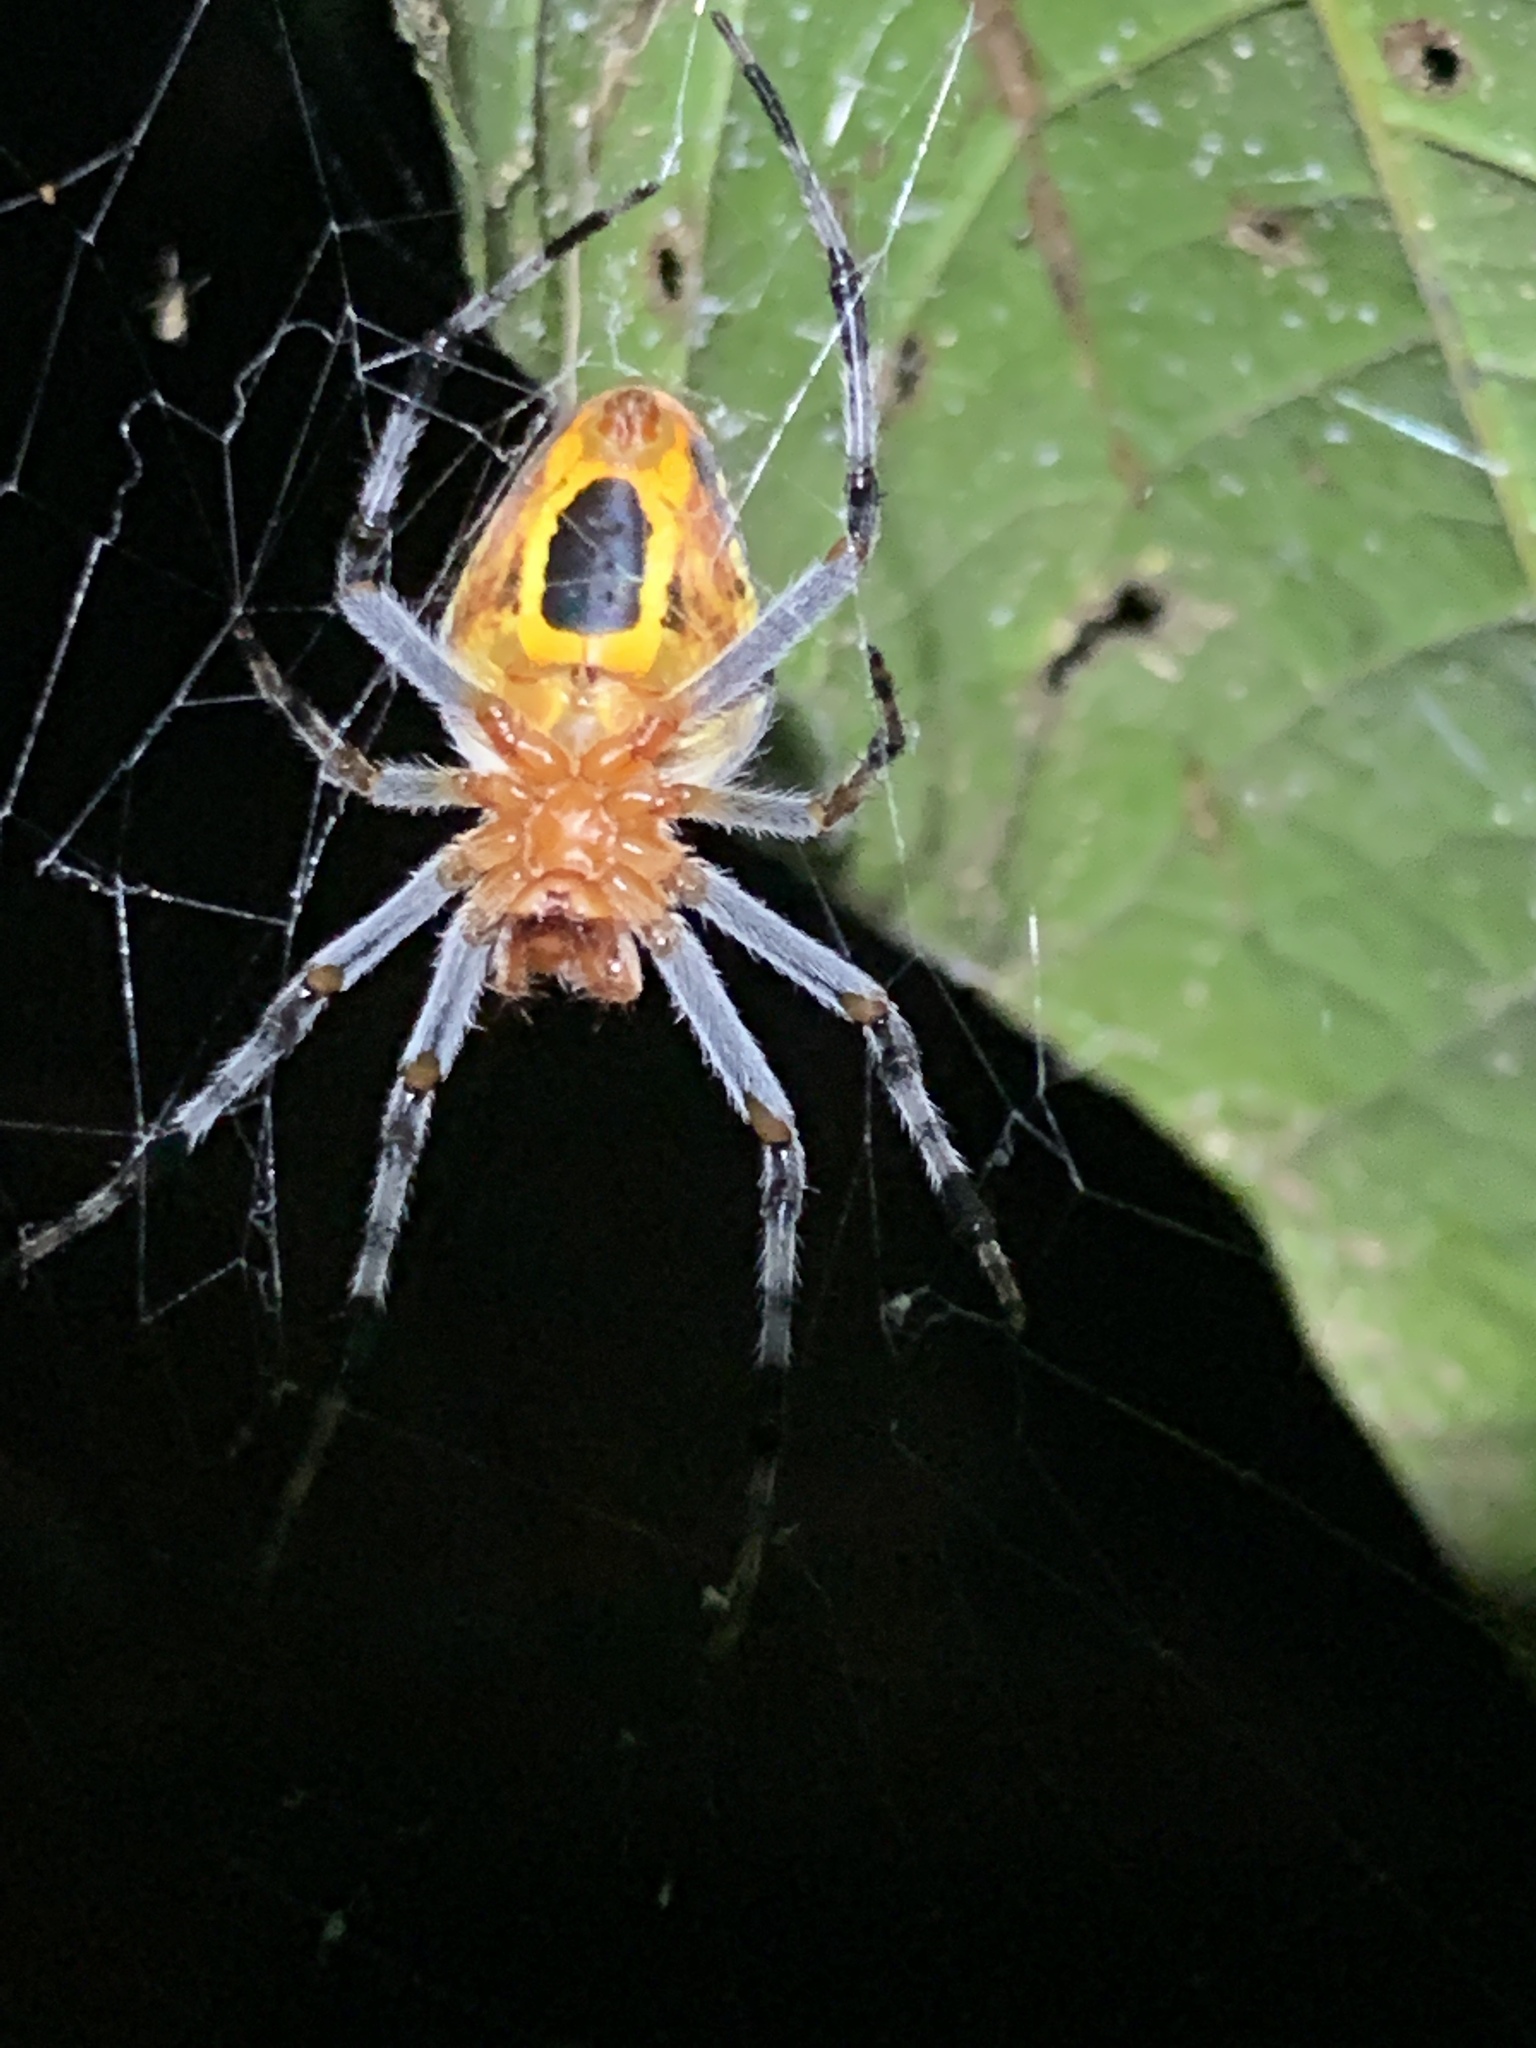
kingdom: Animalia
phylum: Arthropoda
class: Arachnida
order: Araneae
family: Araneidae
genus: Eriophora
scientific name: Eriophora nephiloides
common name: Orb weavers
